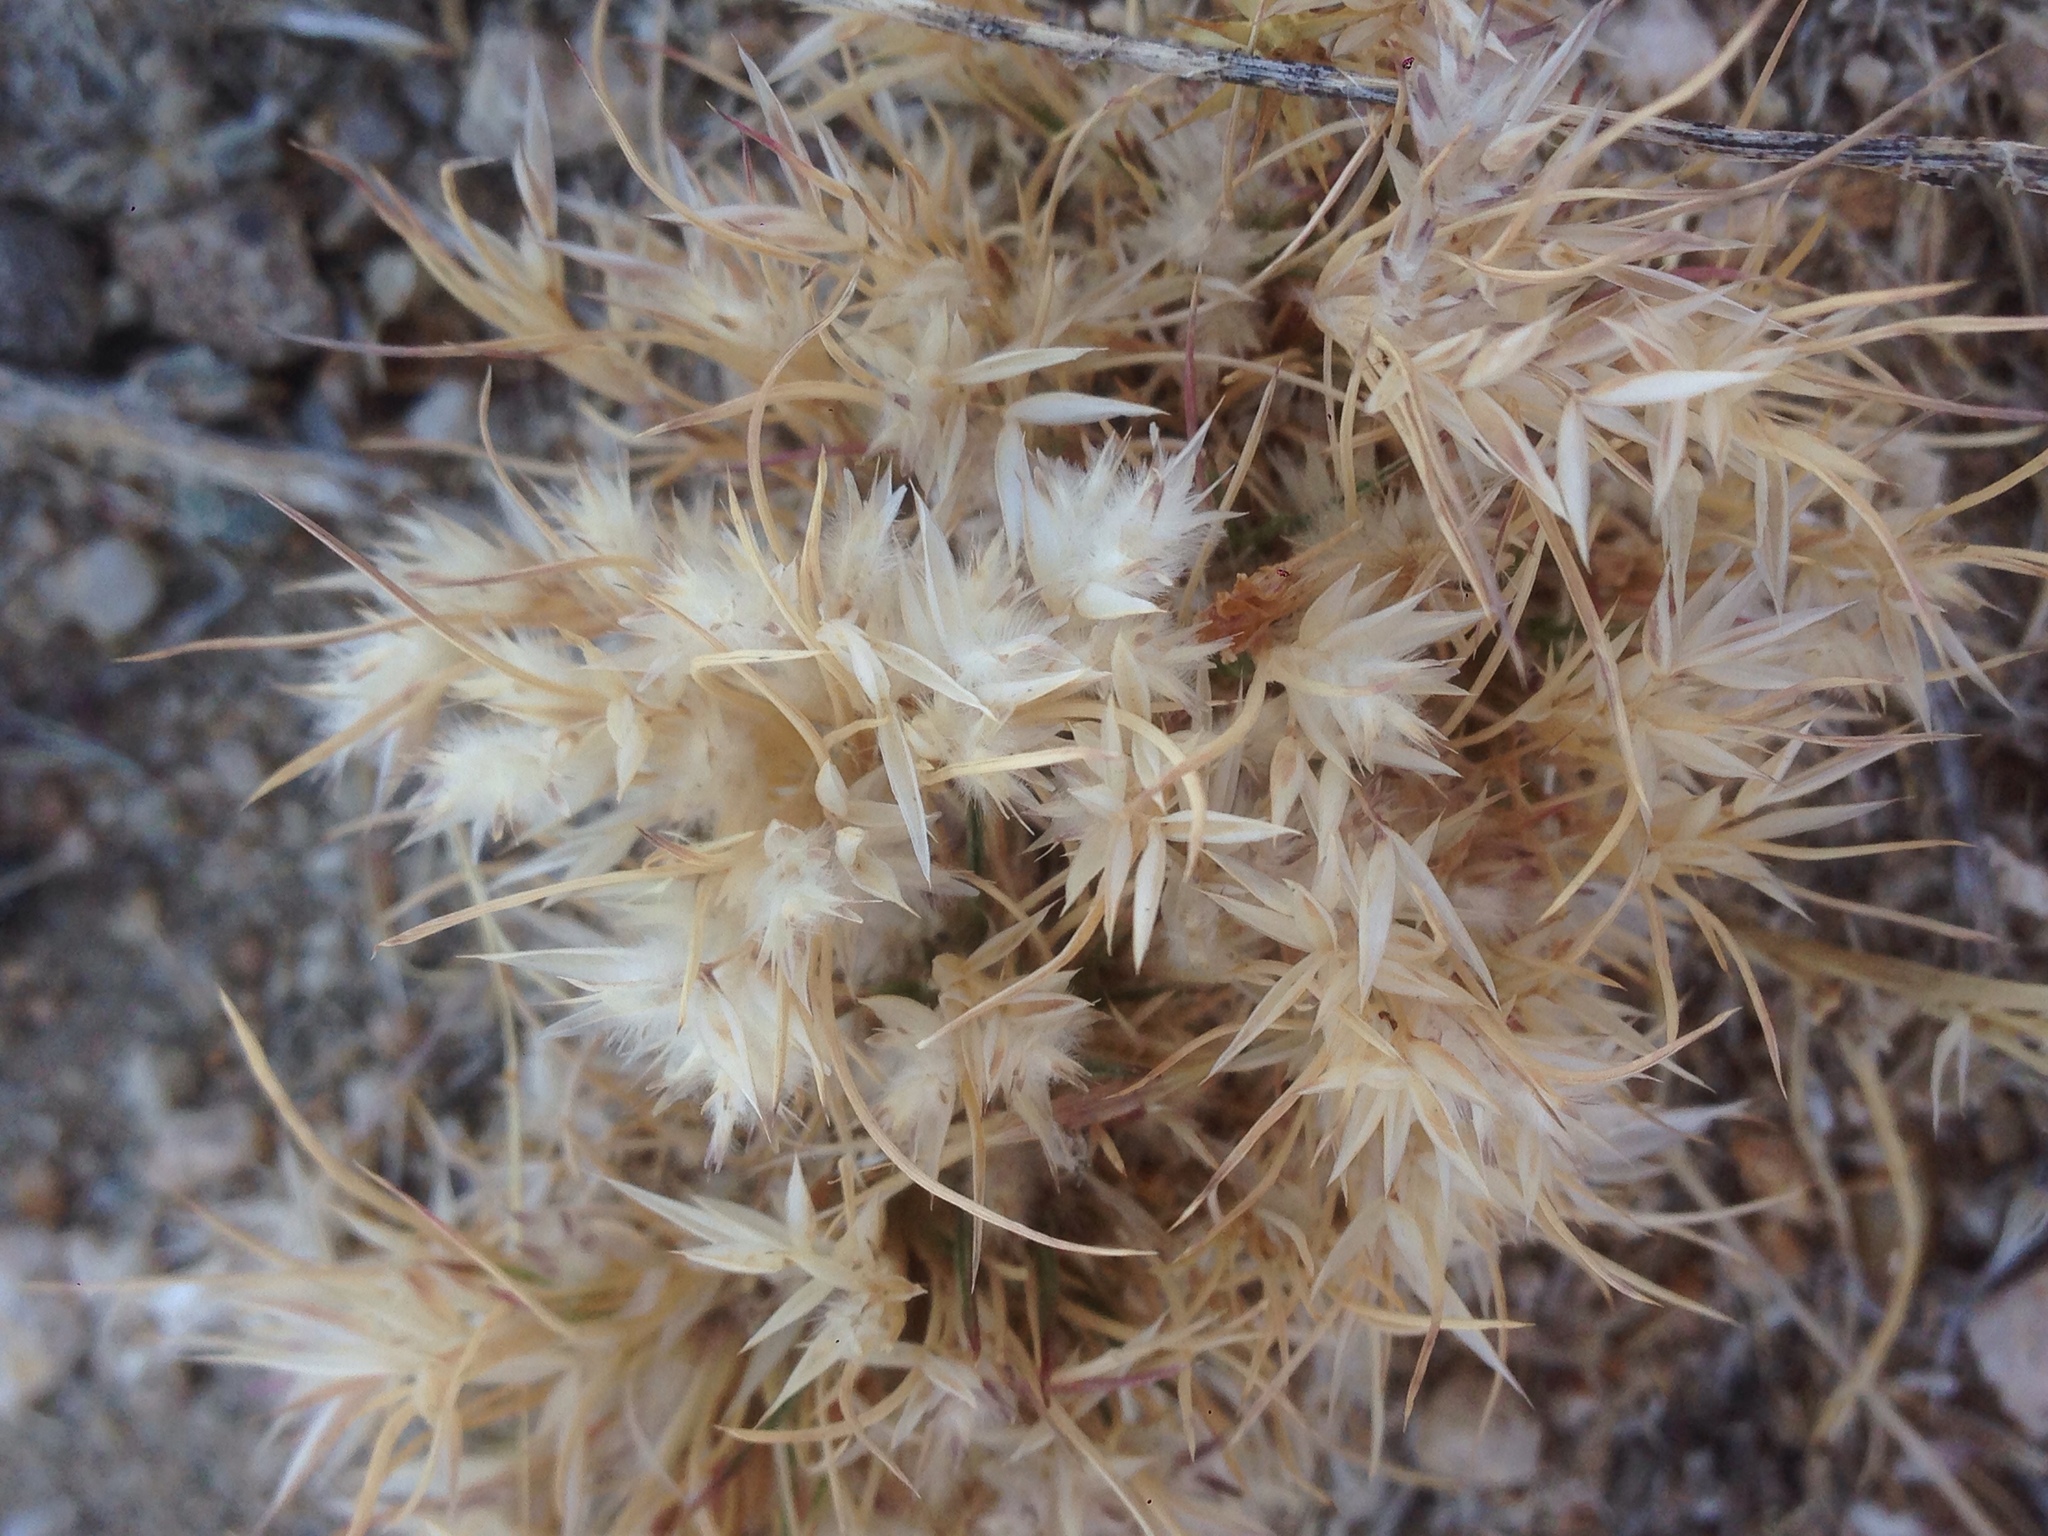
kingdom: Plantae
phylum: Tracheophyta
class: Liliopsida
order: Poales
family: Poaceae
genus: Dasyochloa
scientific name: Dasyochloa pulchella
